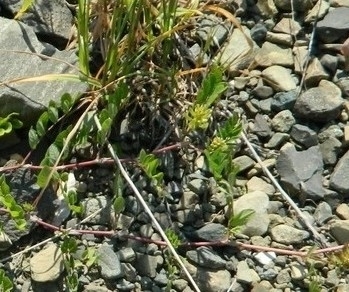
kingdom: Plantae
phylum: Tracheophyta
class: Magnoliopsida
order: Fabales
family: Fabaceae
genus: Astragalus
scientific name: Astragalus glycyphyllos
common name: Wild liquorice
